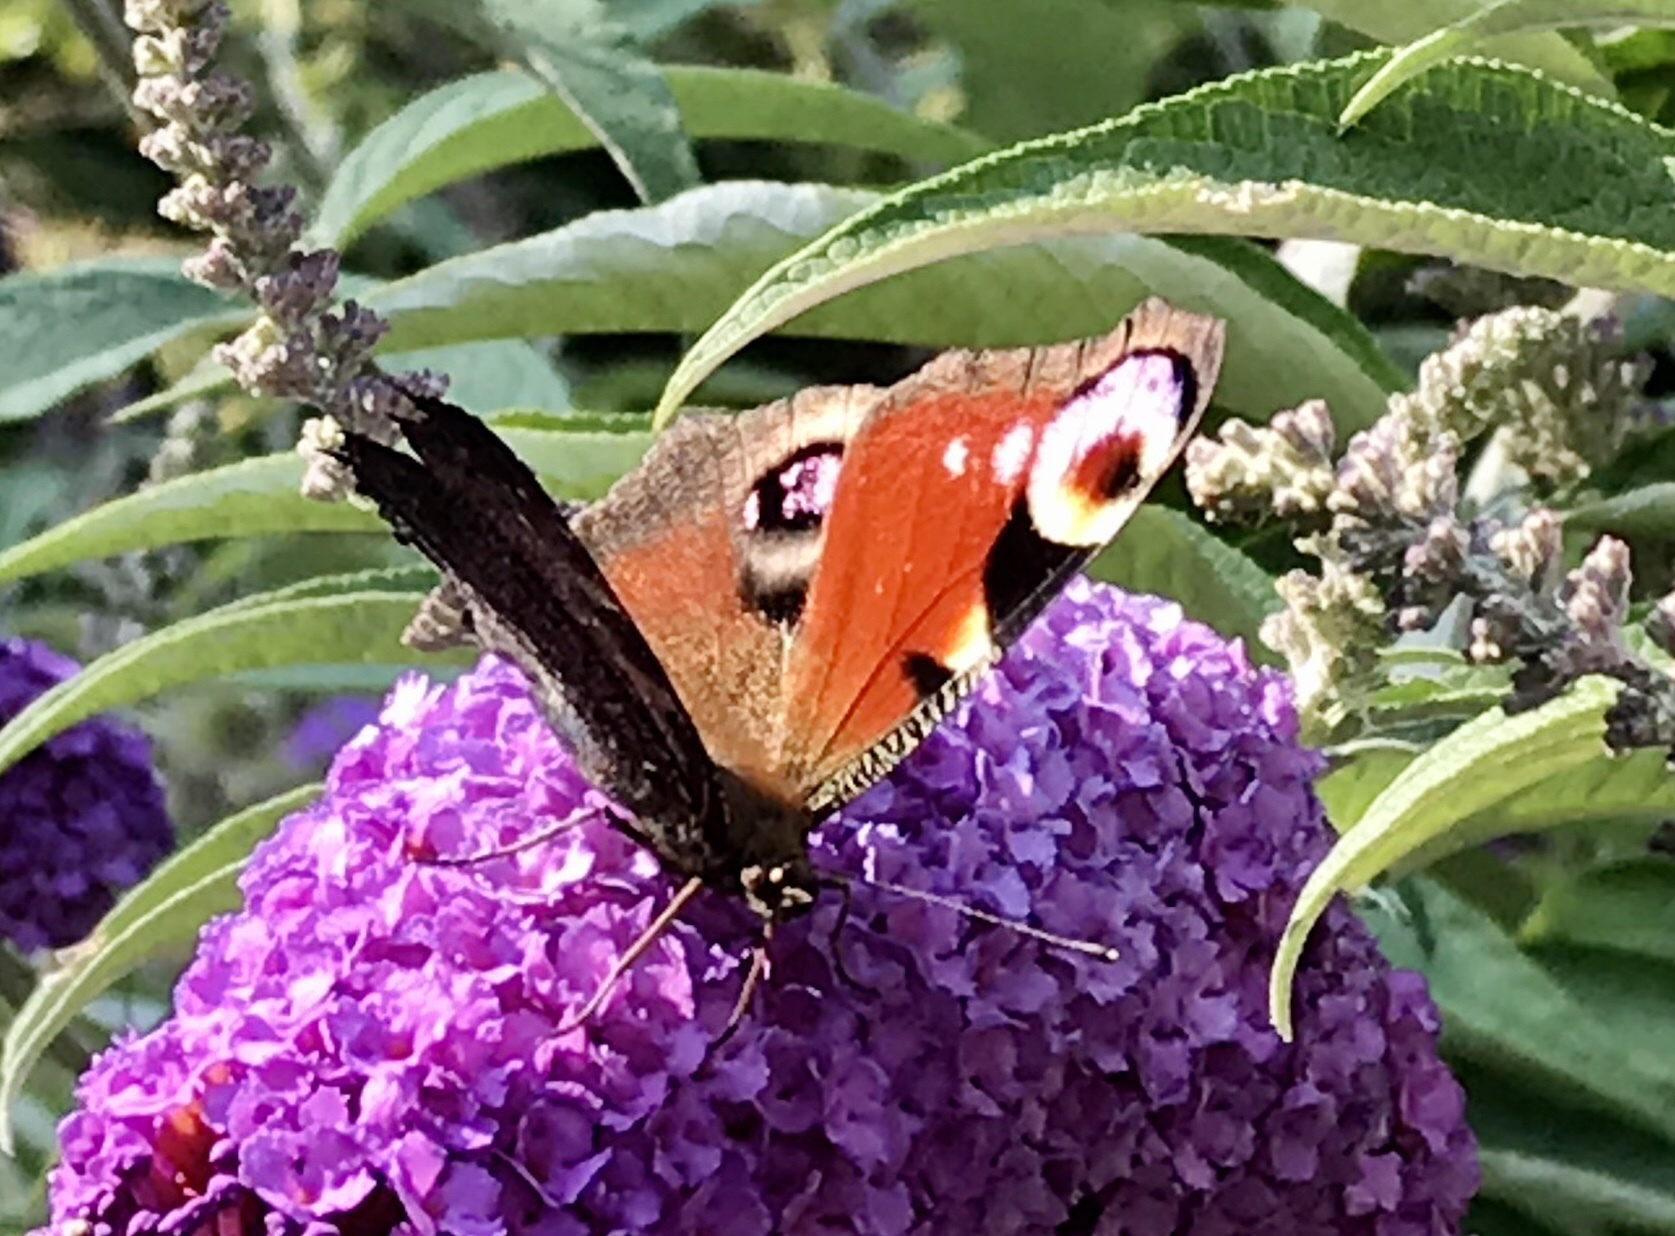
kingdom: Animalia
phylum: Arthropoda
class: Insecta
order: Lepidoptera
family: Nymphalidae
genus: Aglais
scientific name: Aglais io
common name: Peacock
